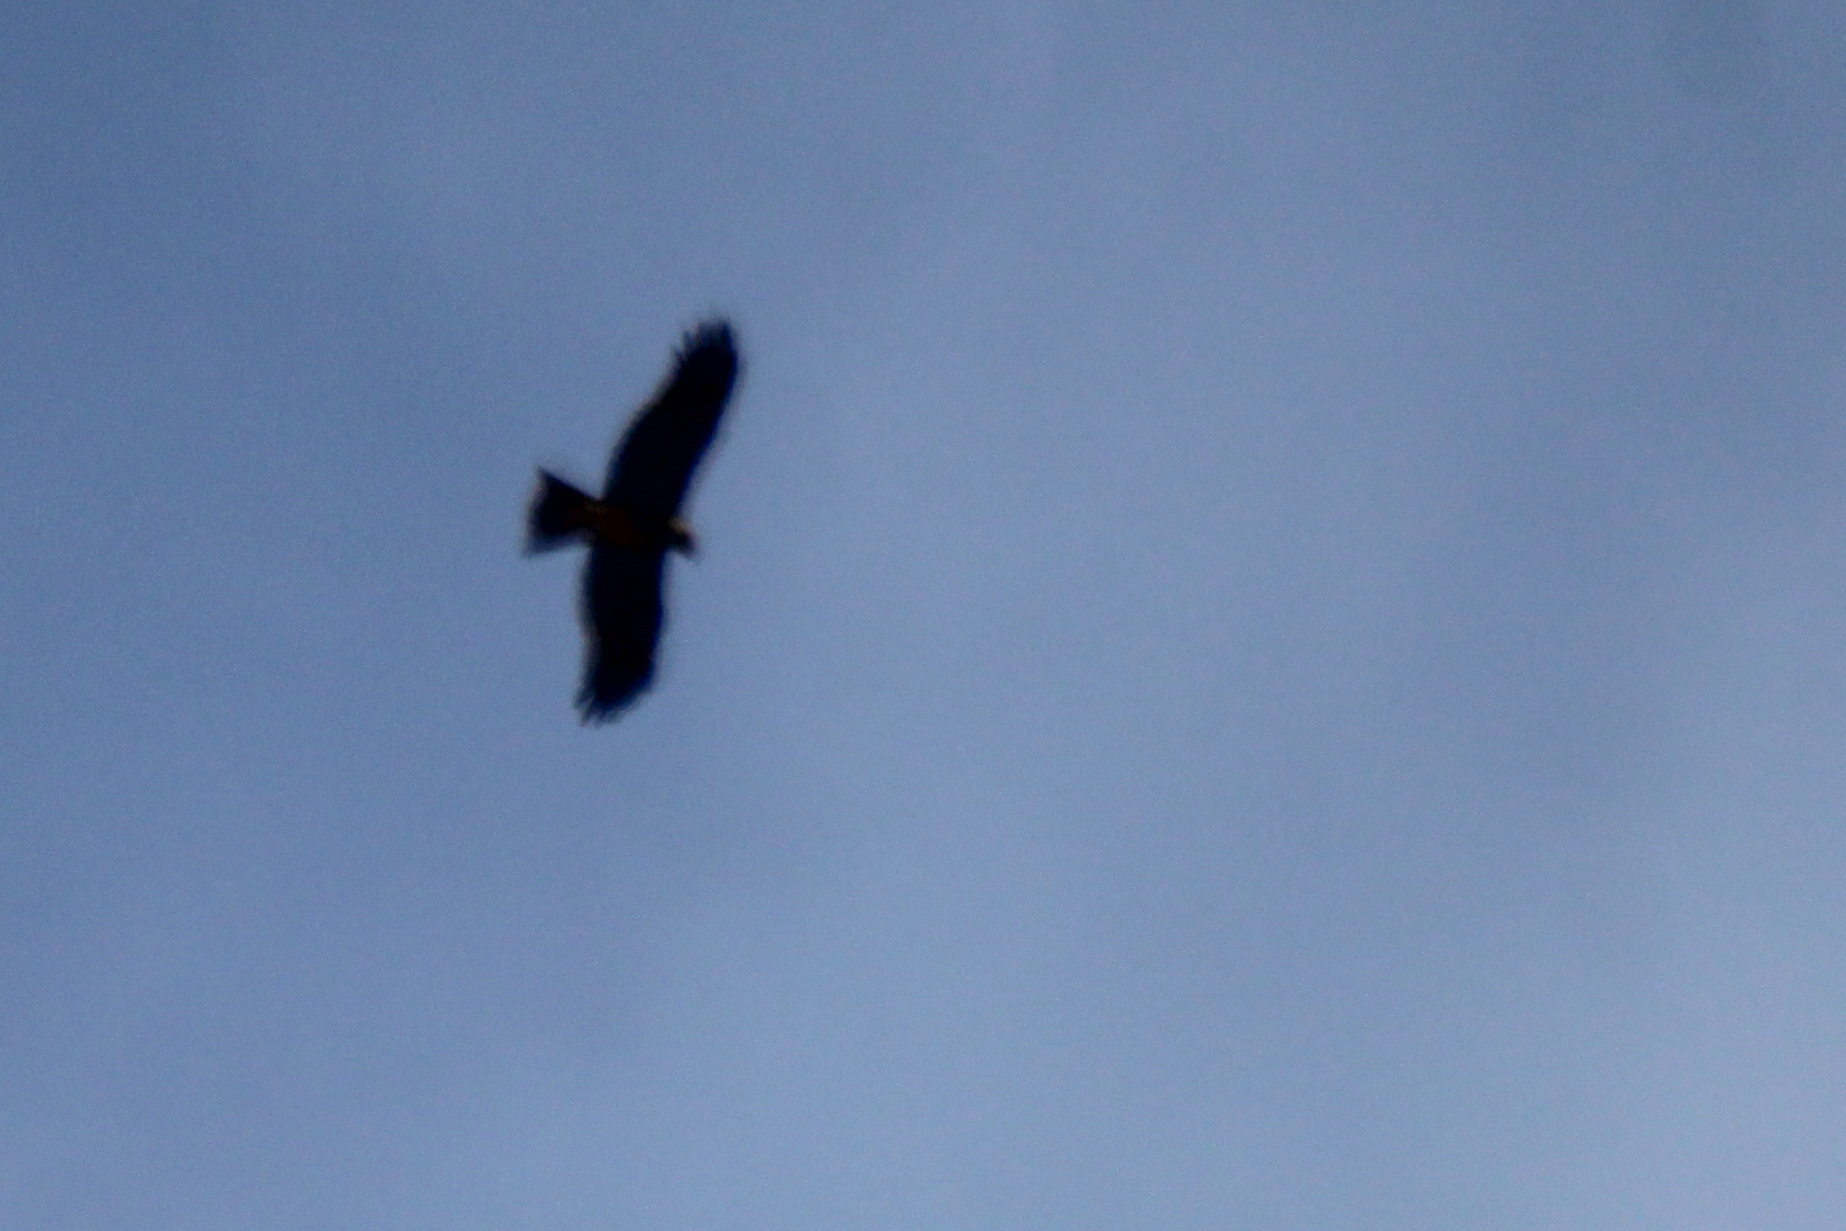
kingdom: Animalia
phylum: Chordata
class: Aves
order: Accipitriformes
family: Accipitridae
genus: Milvus
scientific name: Milvus migrans
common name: Black kite
